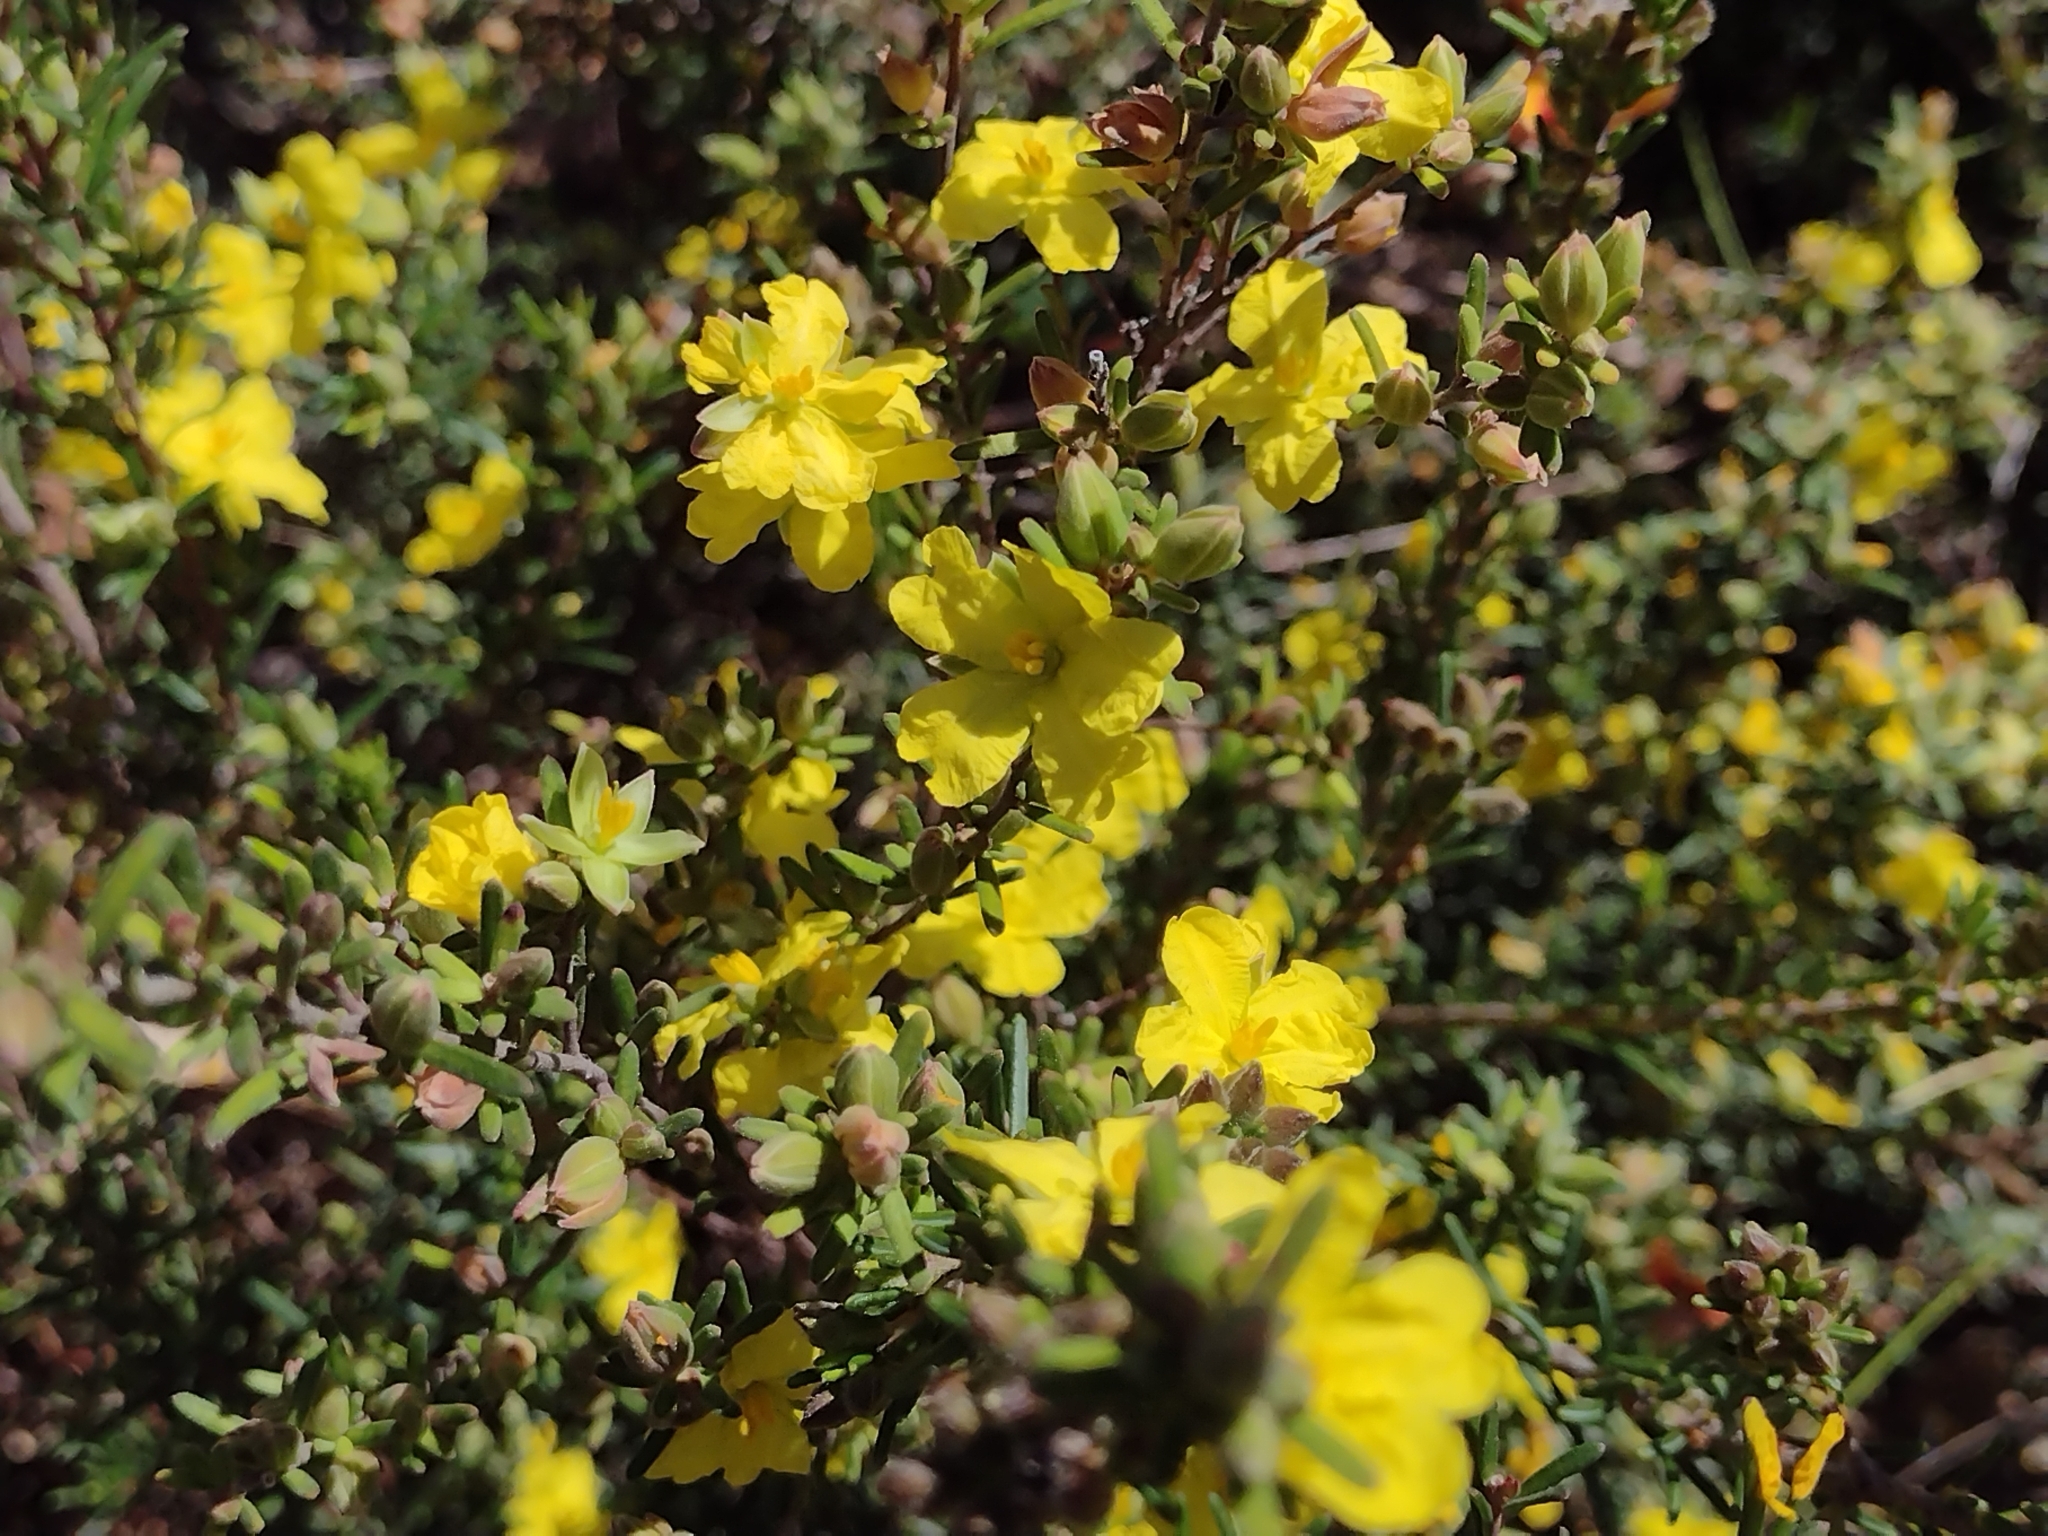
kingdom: Plantae
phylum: Tracheophyta
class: Magnoliopsida
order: Dilleniales
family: Dilleniaceae
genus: Hibbertia
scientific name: Hibbertia riparia
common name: Erect guinea-flower
